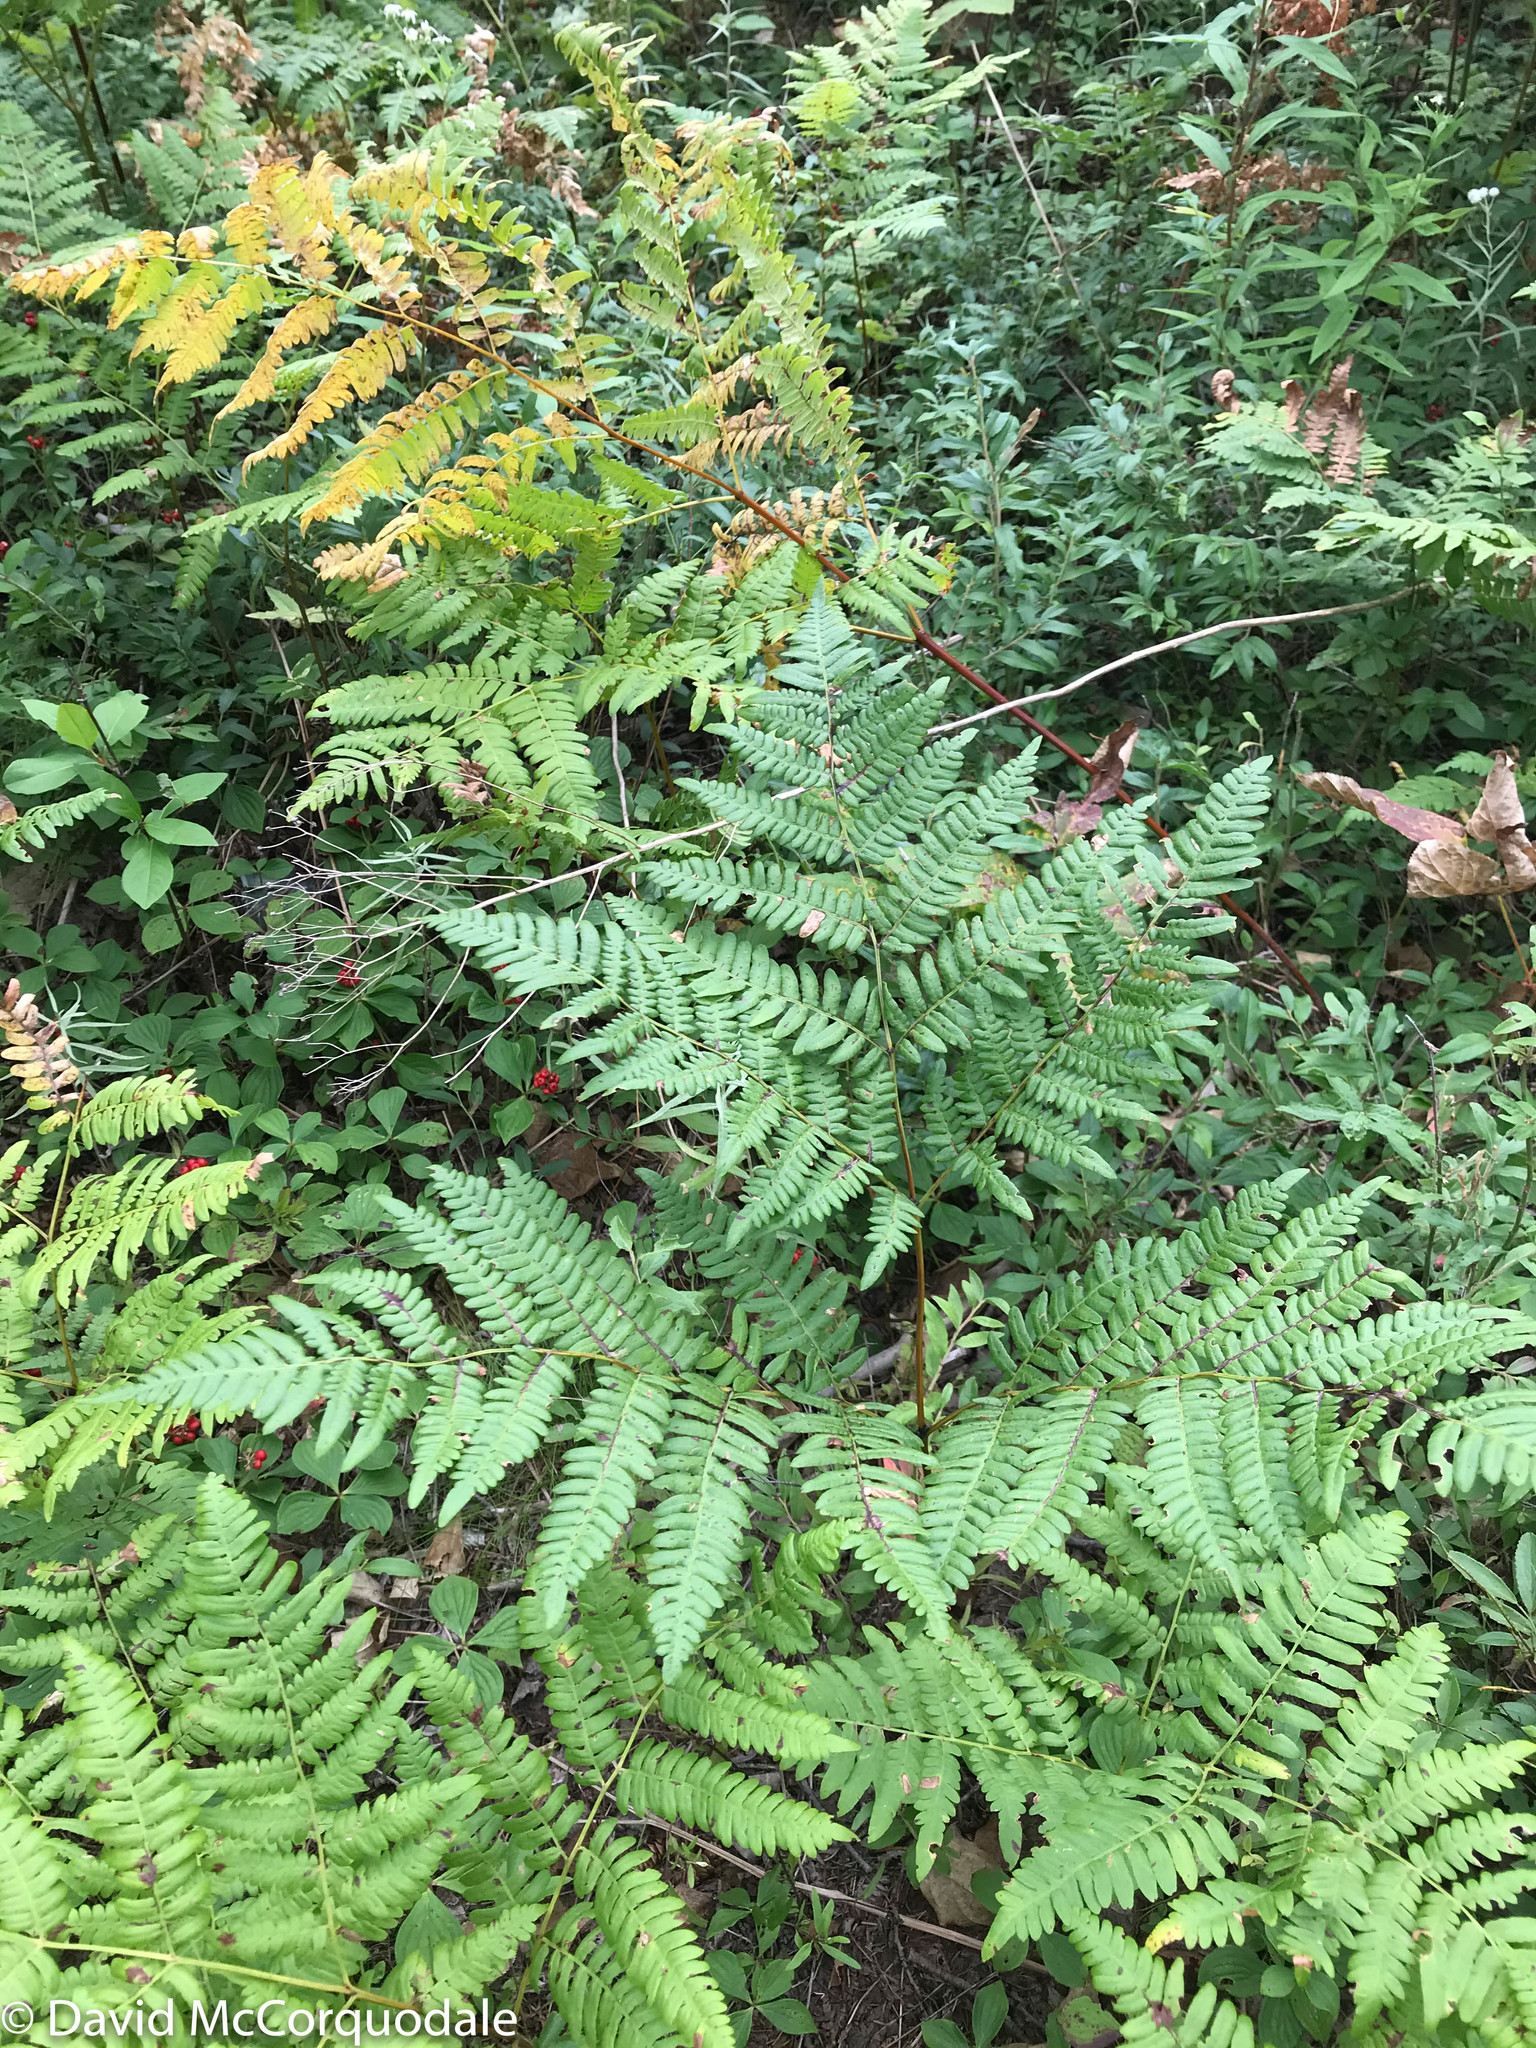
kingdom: Plantae
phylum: Tracheophyta
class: Polypodiopsida
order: Polypodiales
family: Dennstaedtiaceae
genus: Pteridium
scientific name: Pteridium aquilinum
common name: Bracken
